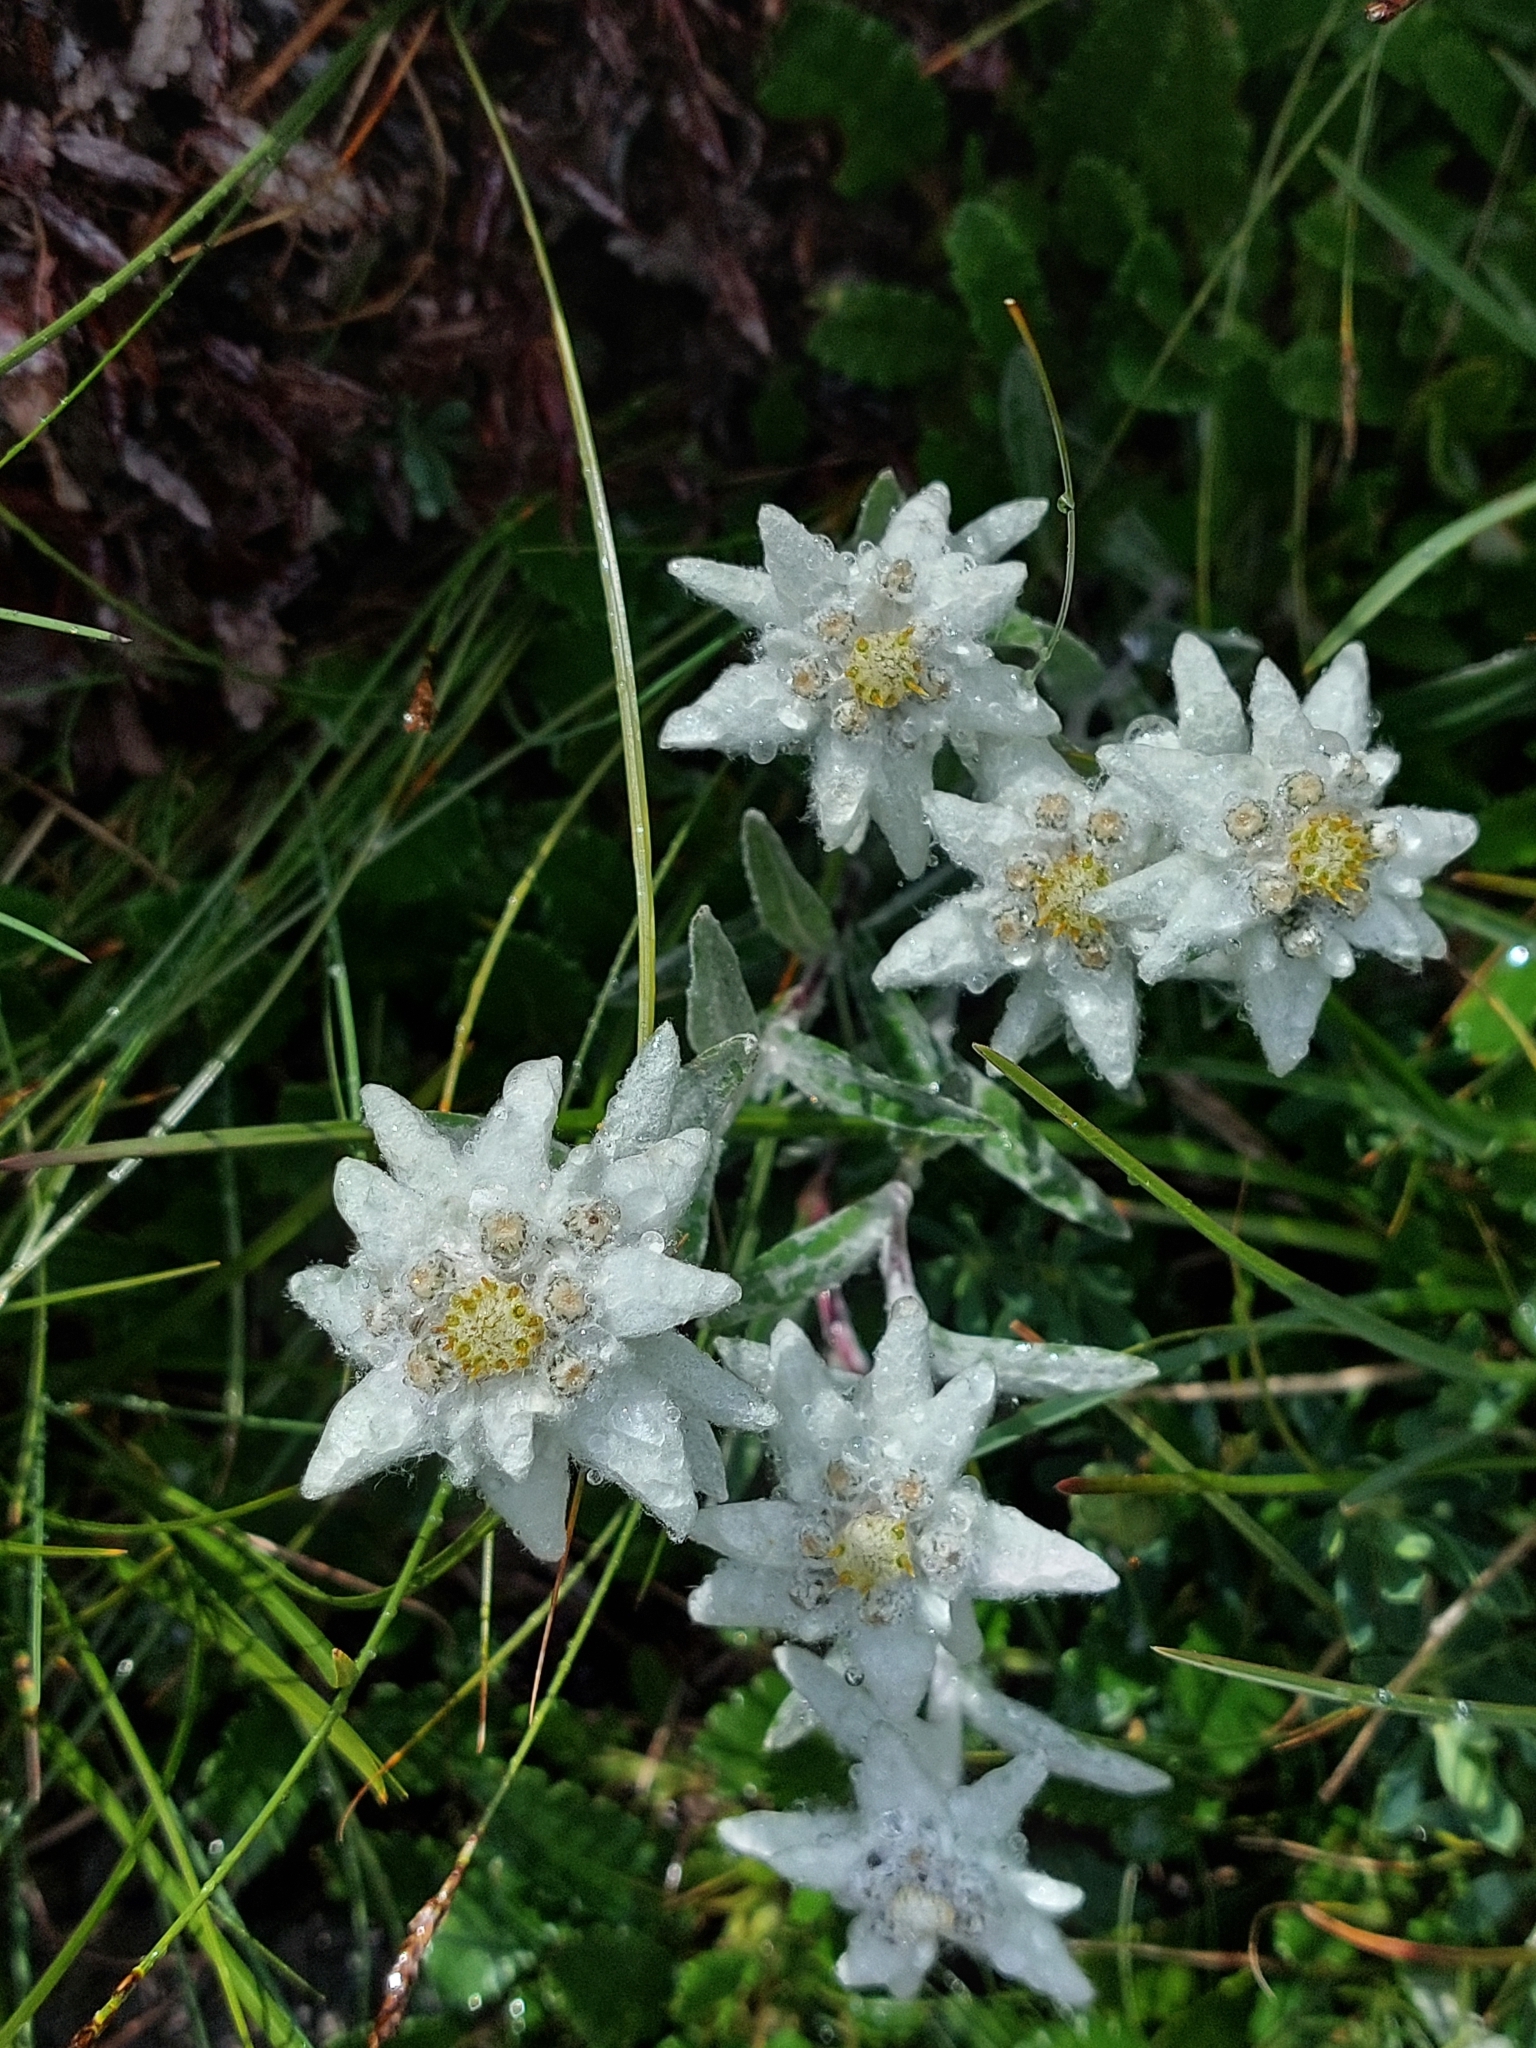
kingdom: Plantae
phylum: Tracheophyta
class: Magnoliopsida
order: Asterales
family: Asteraceae
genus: Leontopodium
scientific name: Leontopodium nivale
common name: Edelweiss
